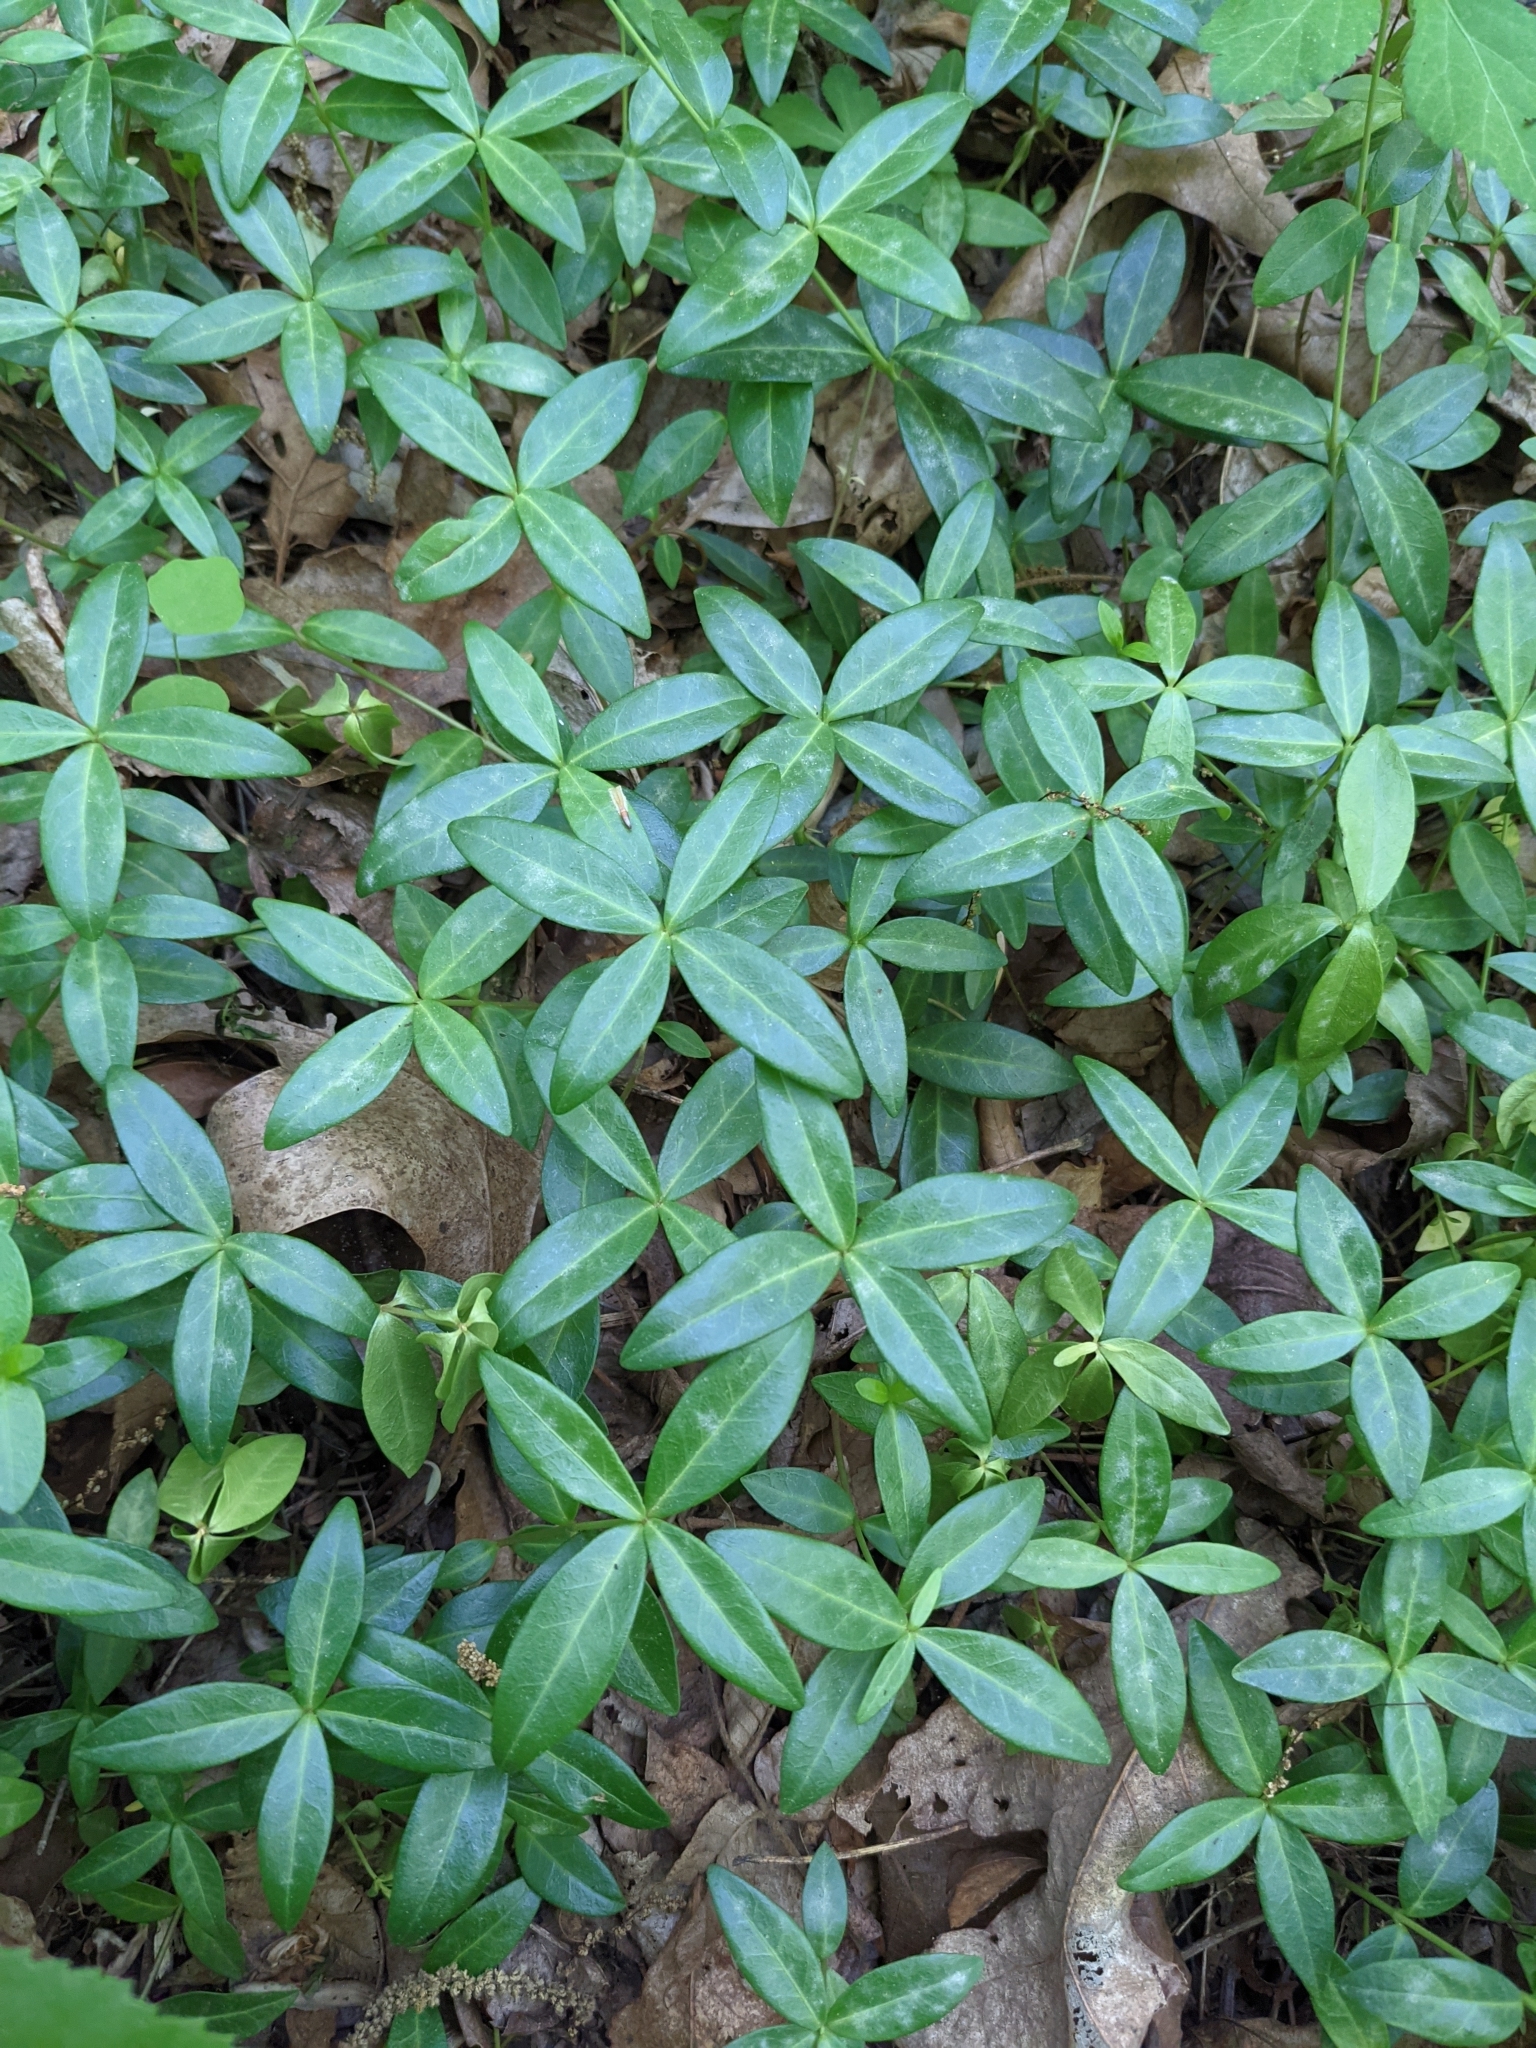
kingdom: Plantae
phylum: Tracheophyta
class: Magnoliopsida
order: Gentianales
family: Apocynaceae
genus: Vinca
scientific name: Vinca minor
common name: Lesser periwinkle
